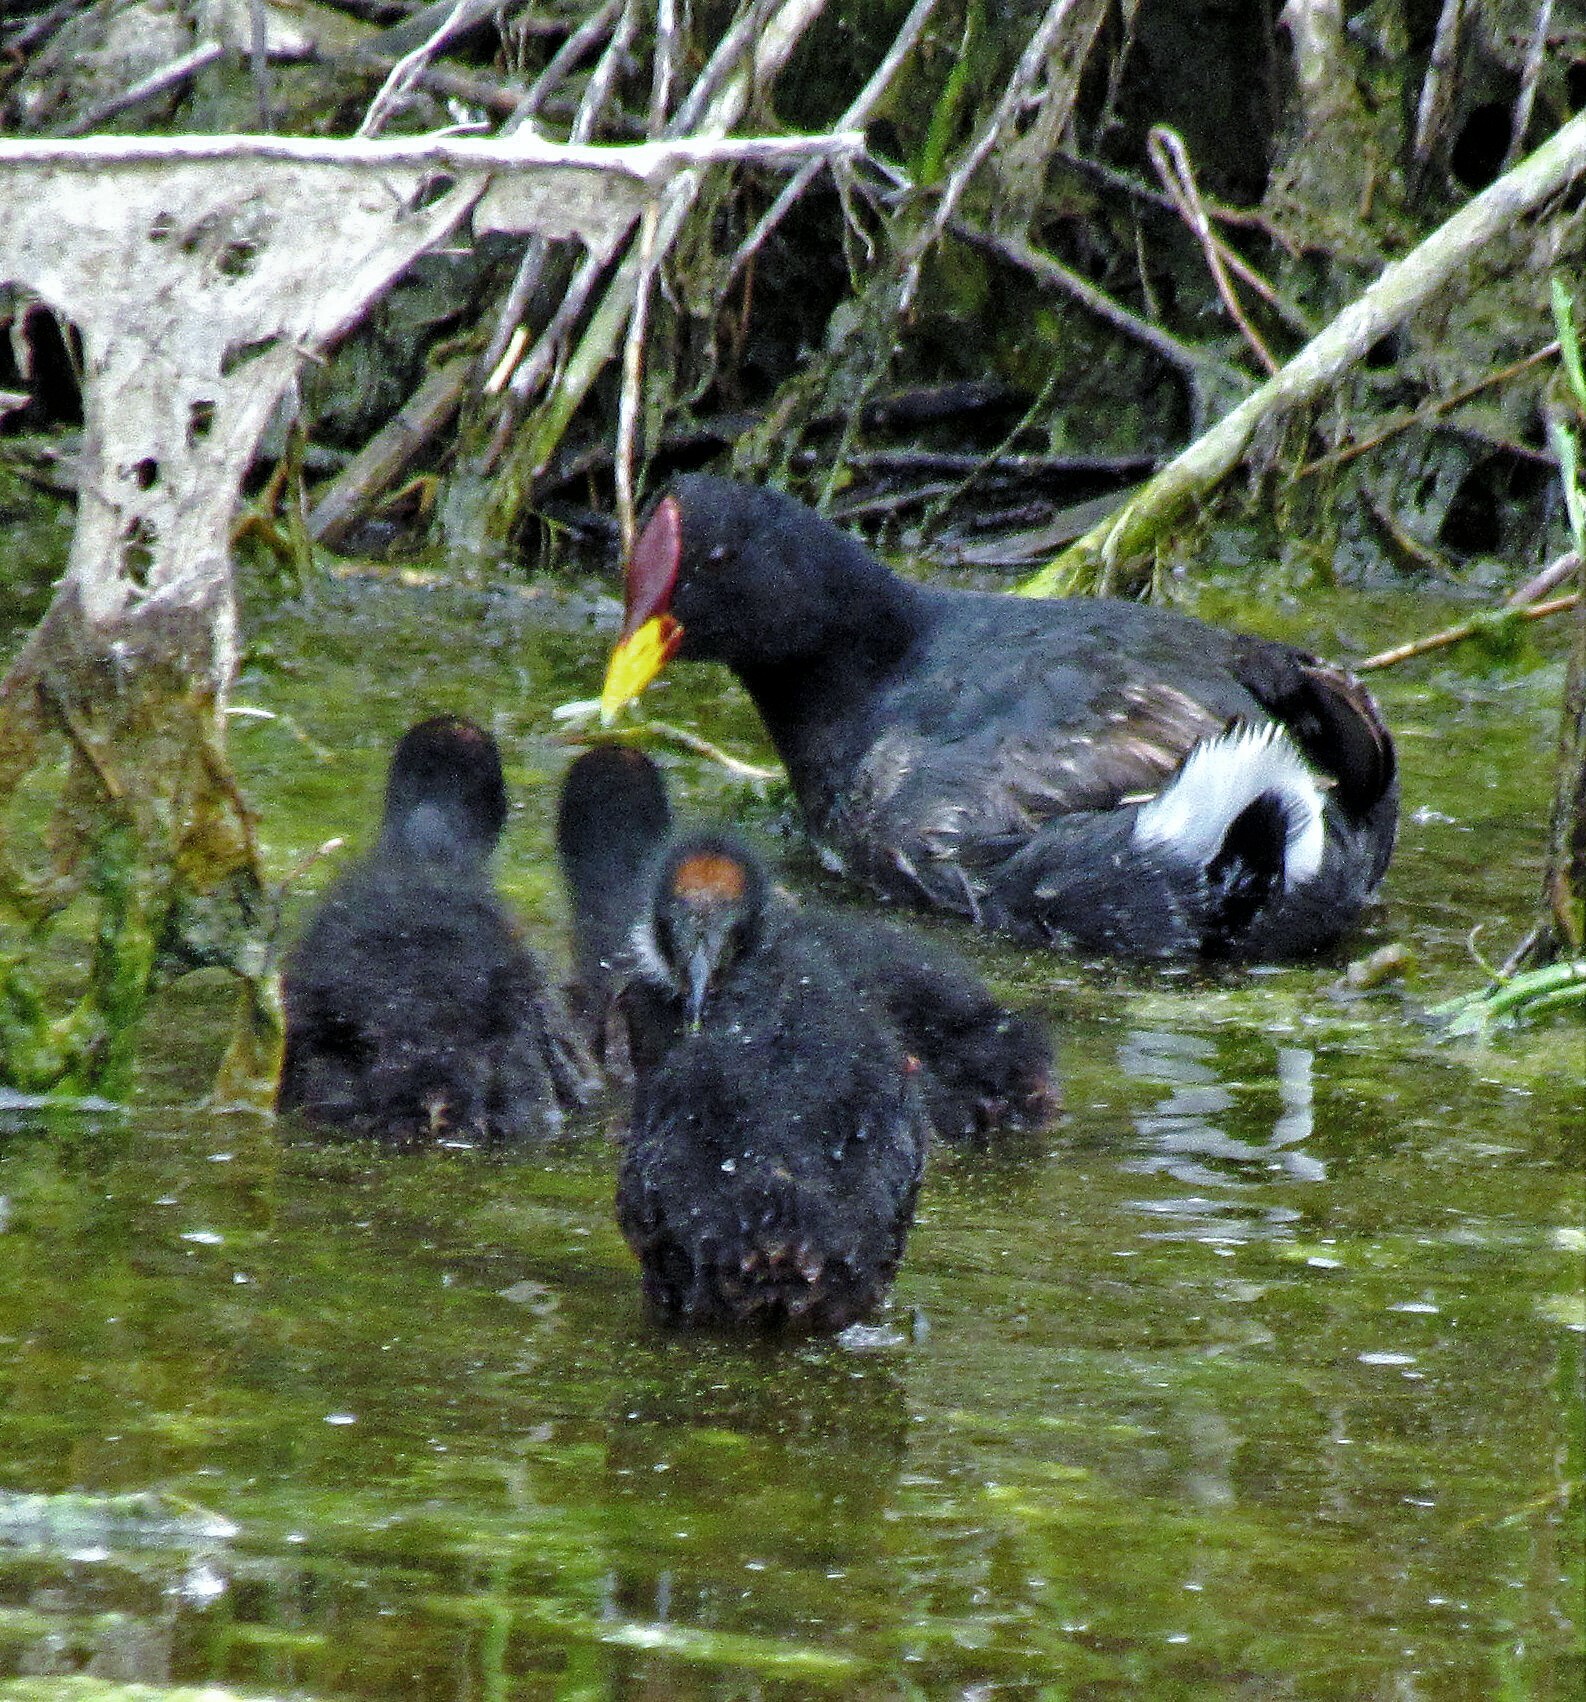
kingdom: Animalia
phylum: Chordata
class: Aves
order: Gruiformes
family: Rallidae
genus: Fulica
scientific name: Fulica rufifrons
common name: Red-fronted coot
